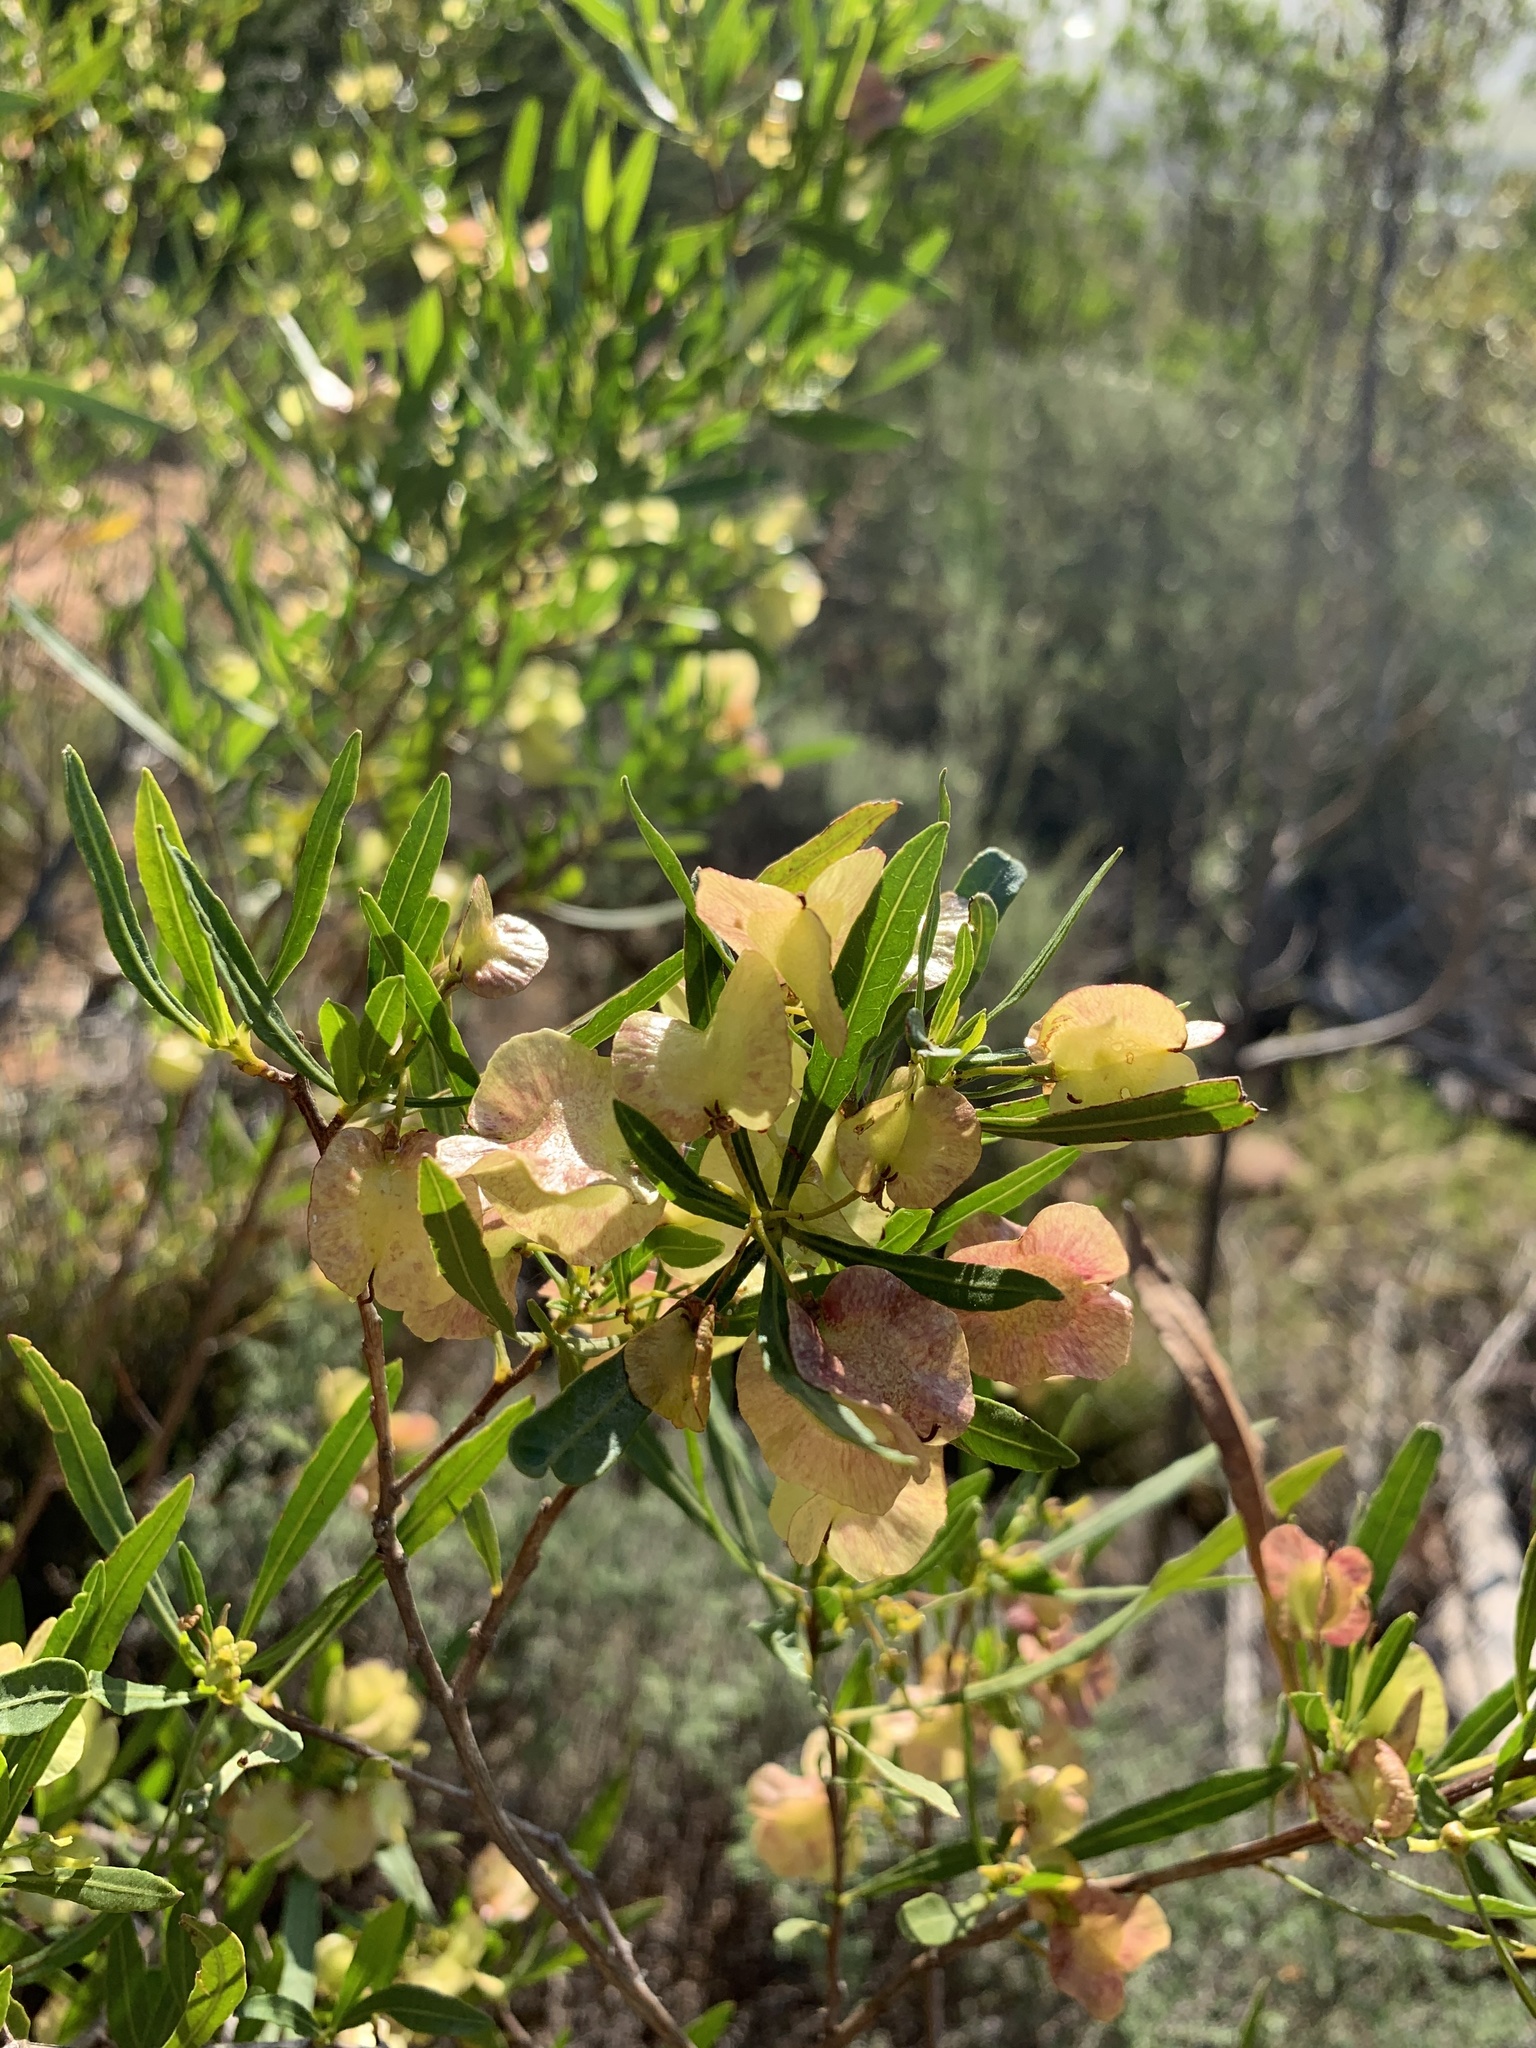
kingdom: Plantae
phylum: Tracheophyta
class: Magnoliopsida
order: Sapindales
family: Sapindaceae
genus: Dodonaea
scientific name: Dodonaea viscosa
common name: Hopbush
